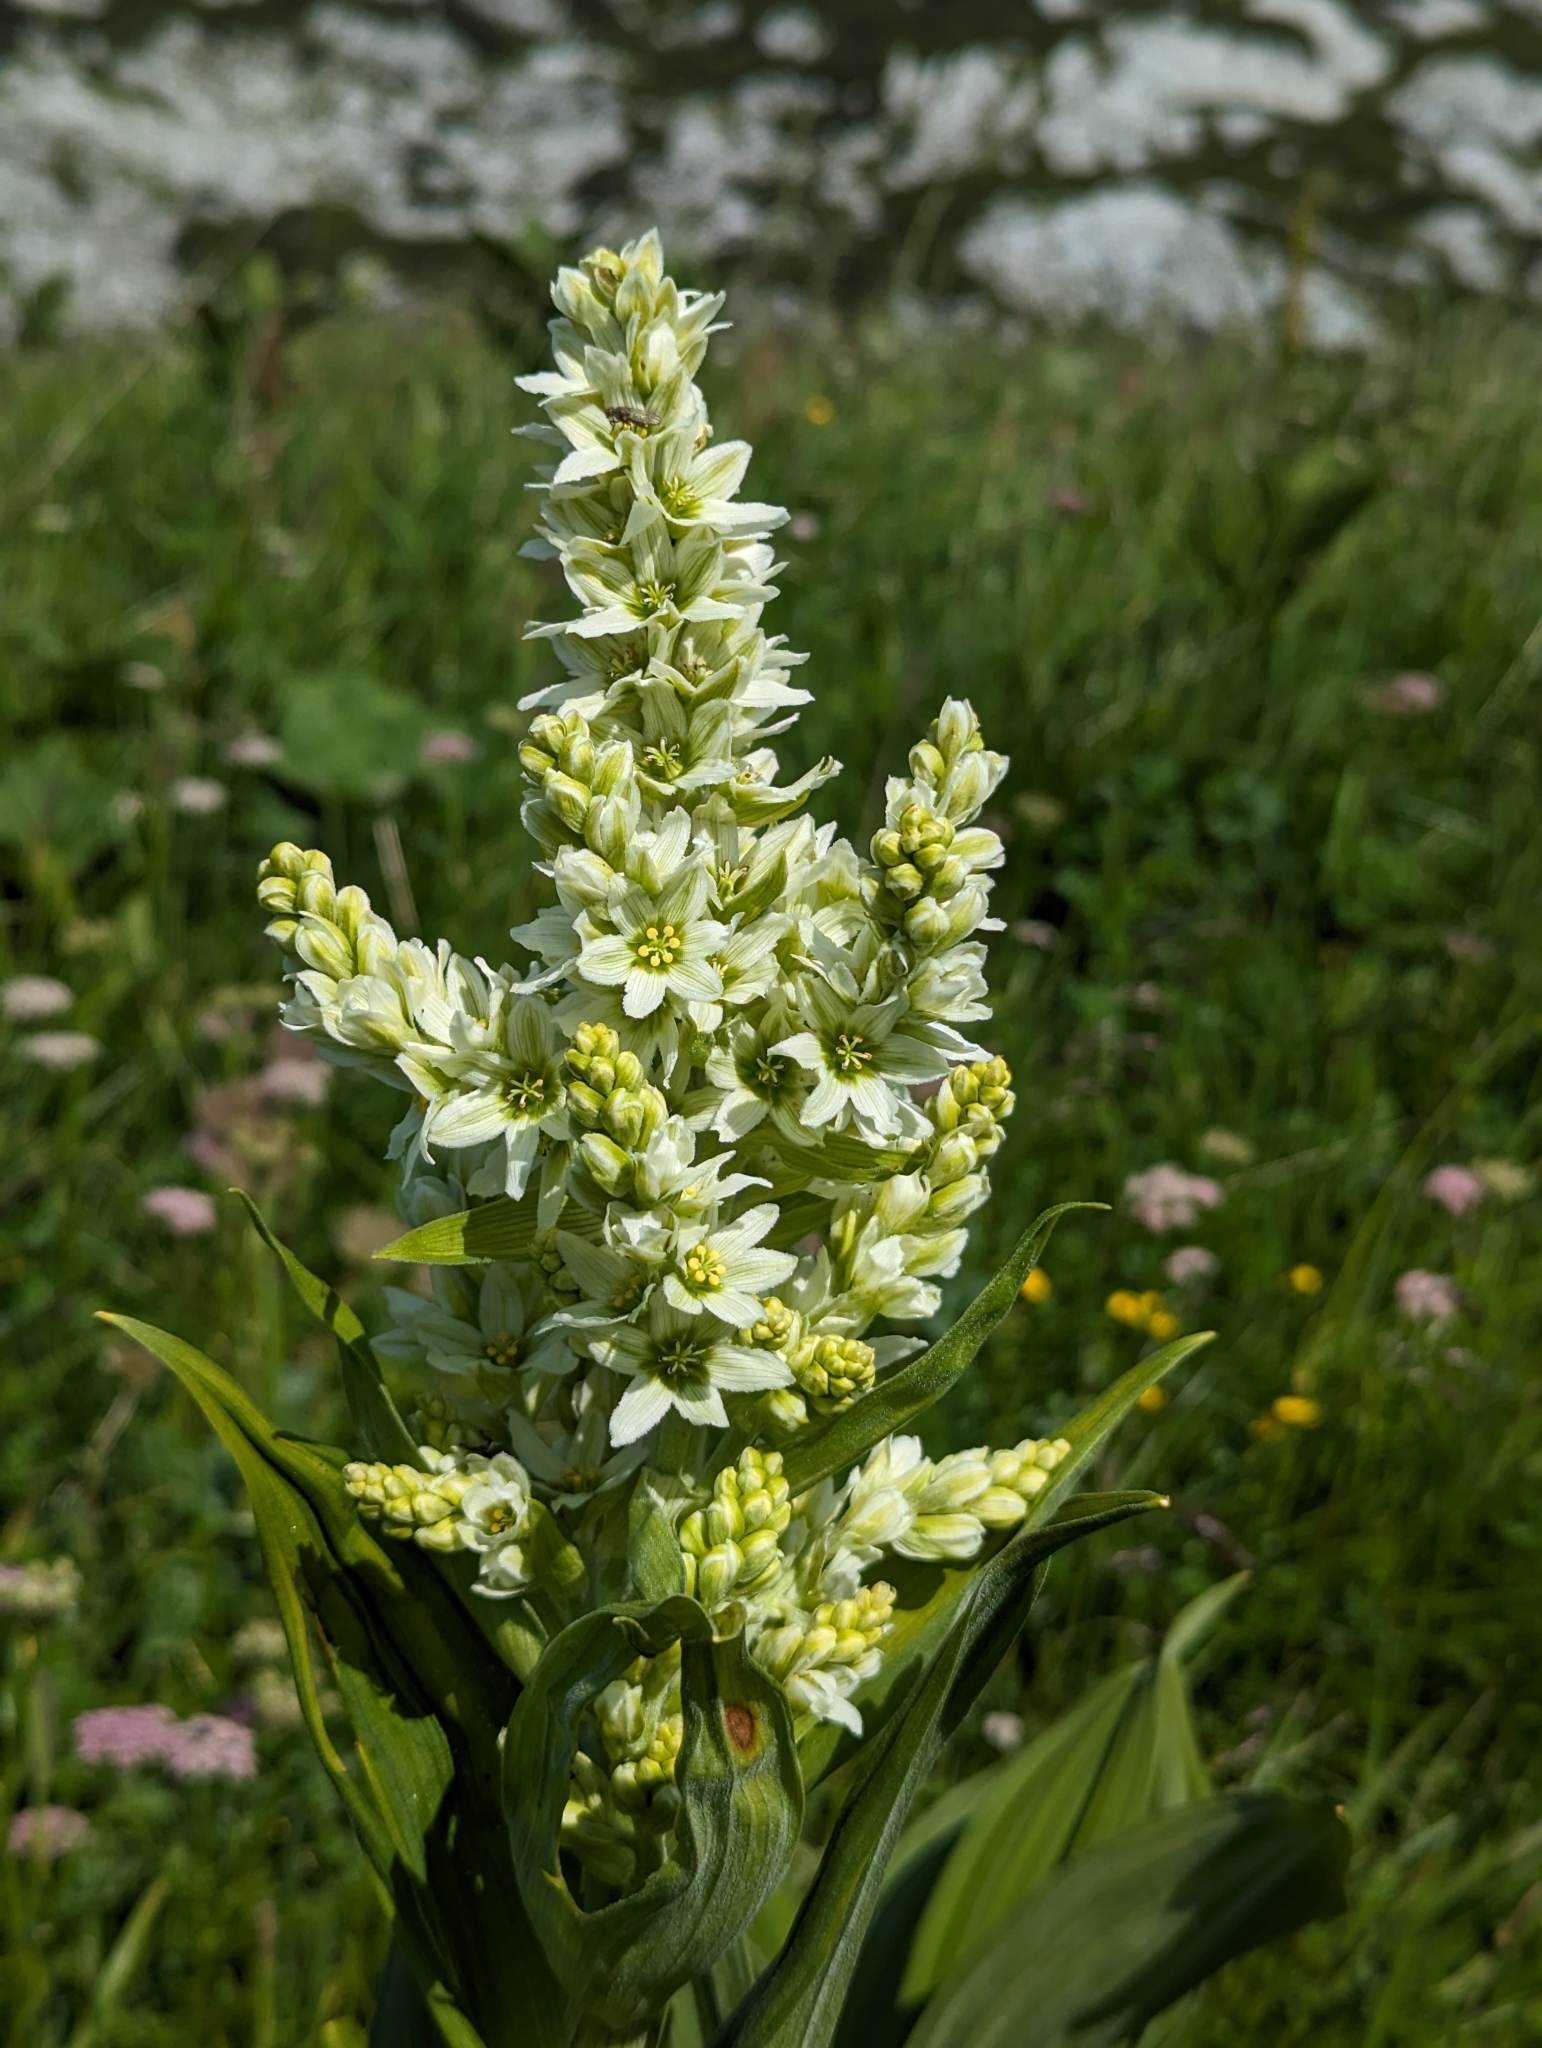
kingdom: Plantae
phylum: Tracheophyta
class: Liliopsida
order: Liliales
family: Melanthiaceae
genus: Veratrum
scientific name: Veratrum album
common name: White veratrum
